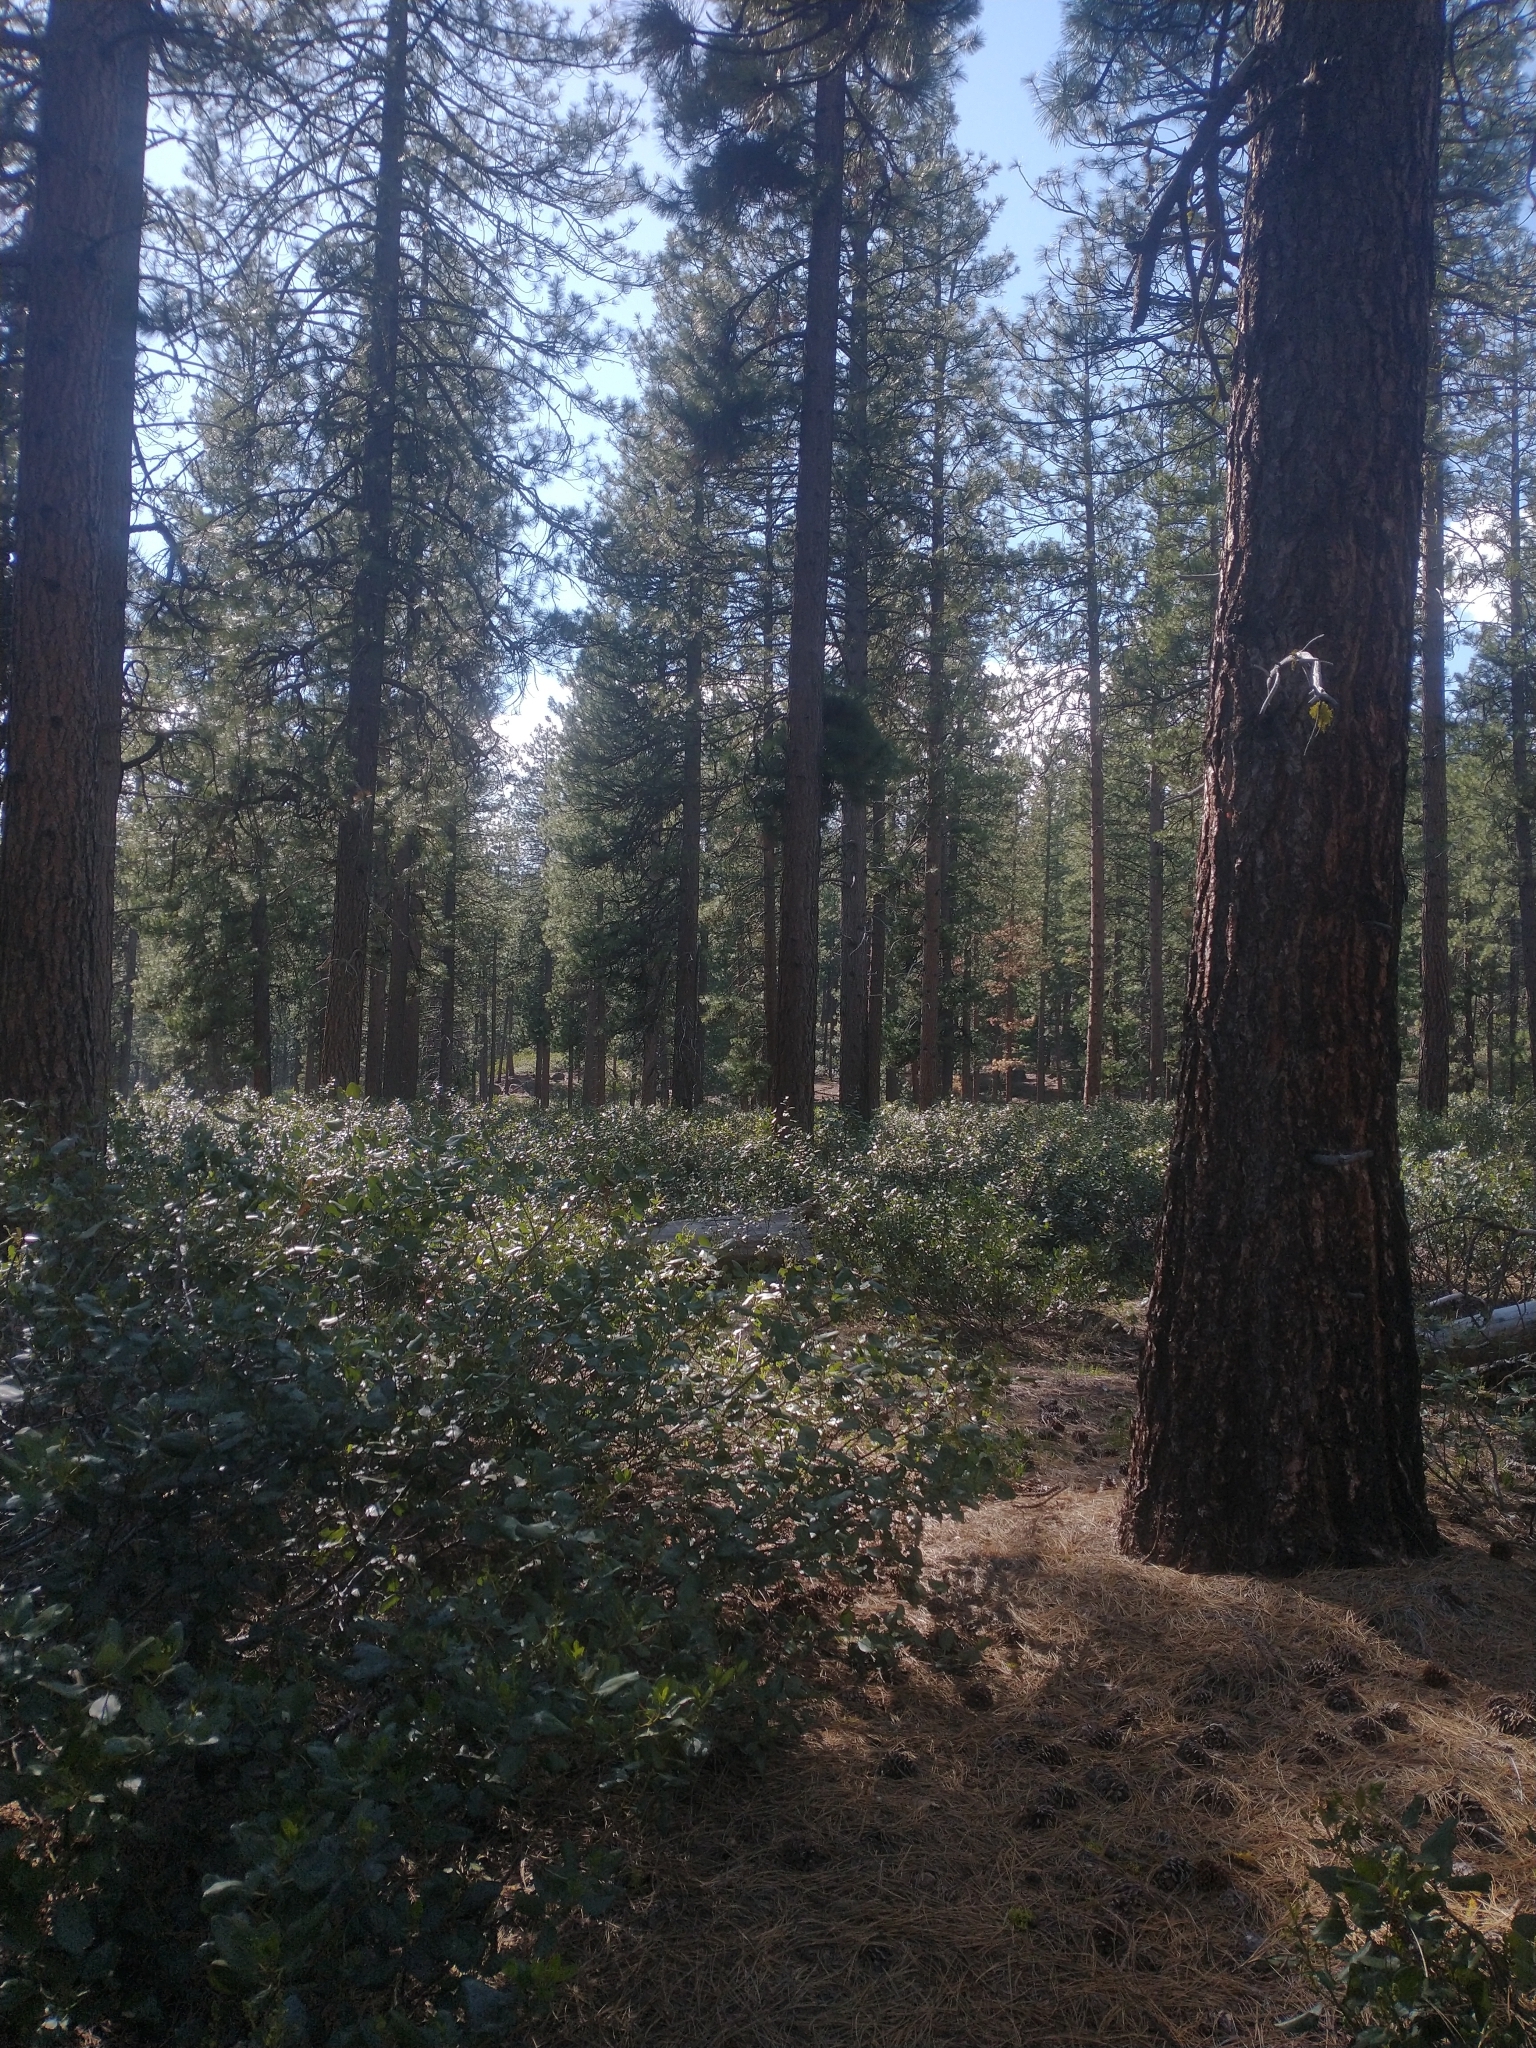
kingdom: Plantae
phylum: Tracheophyta
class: Pinopsida
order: Pinales
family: Pinaceae
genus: Pinus
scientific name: Pinus ponderosa
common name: Western yellow-pine
